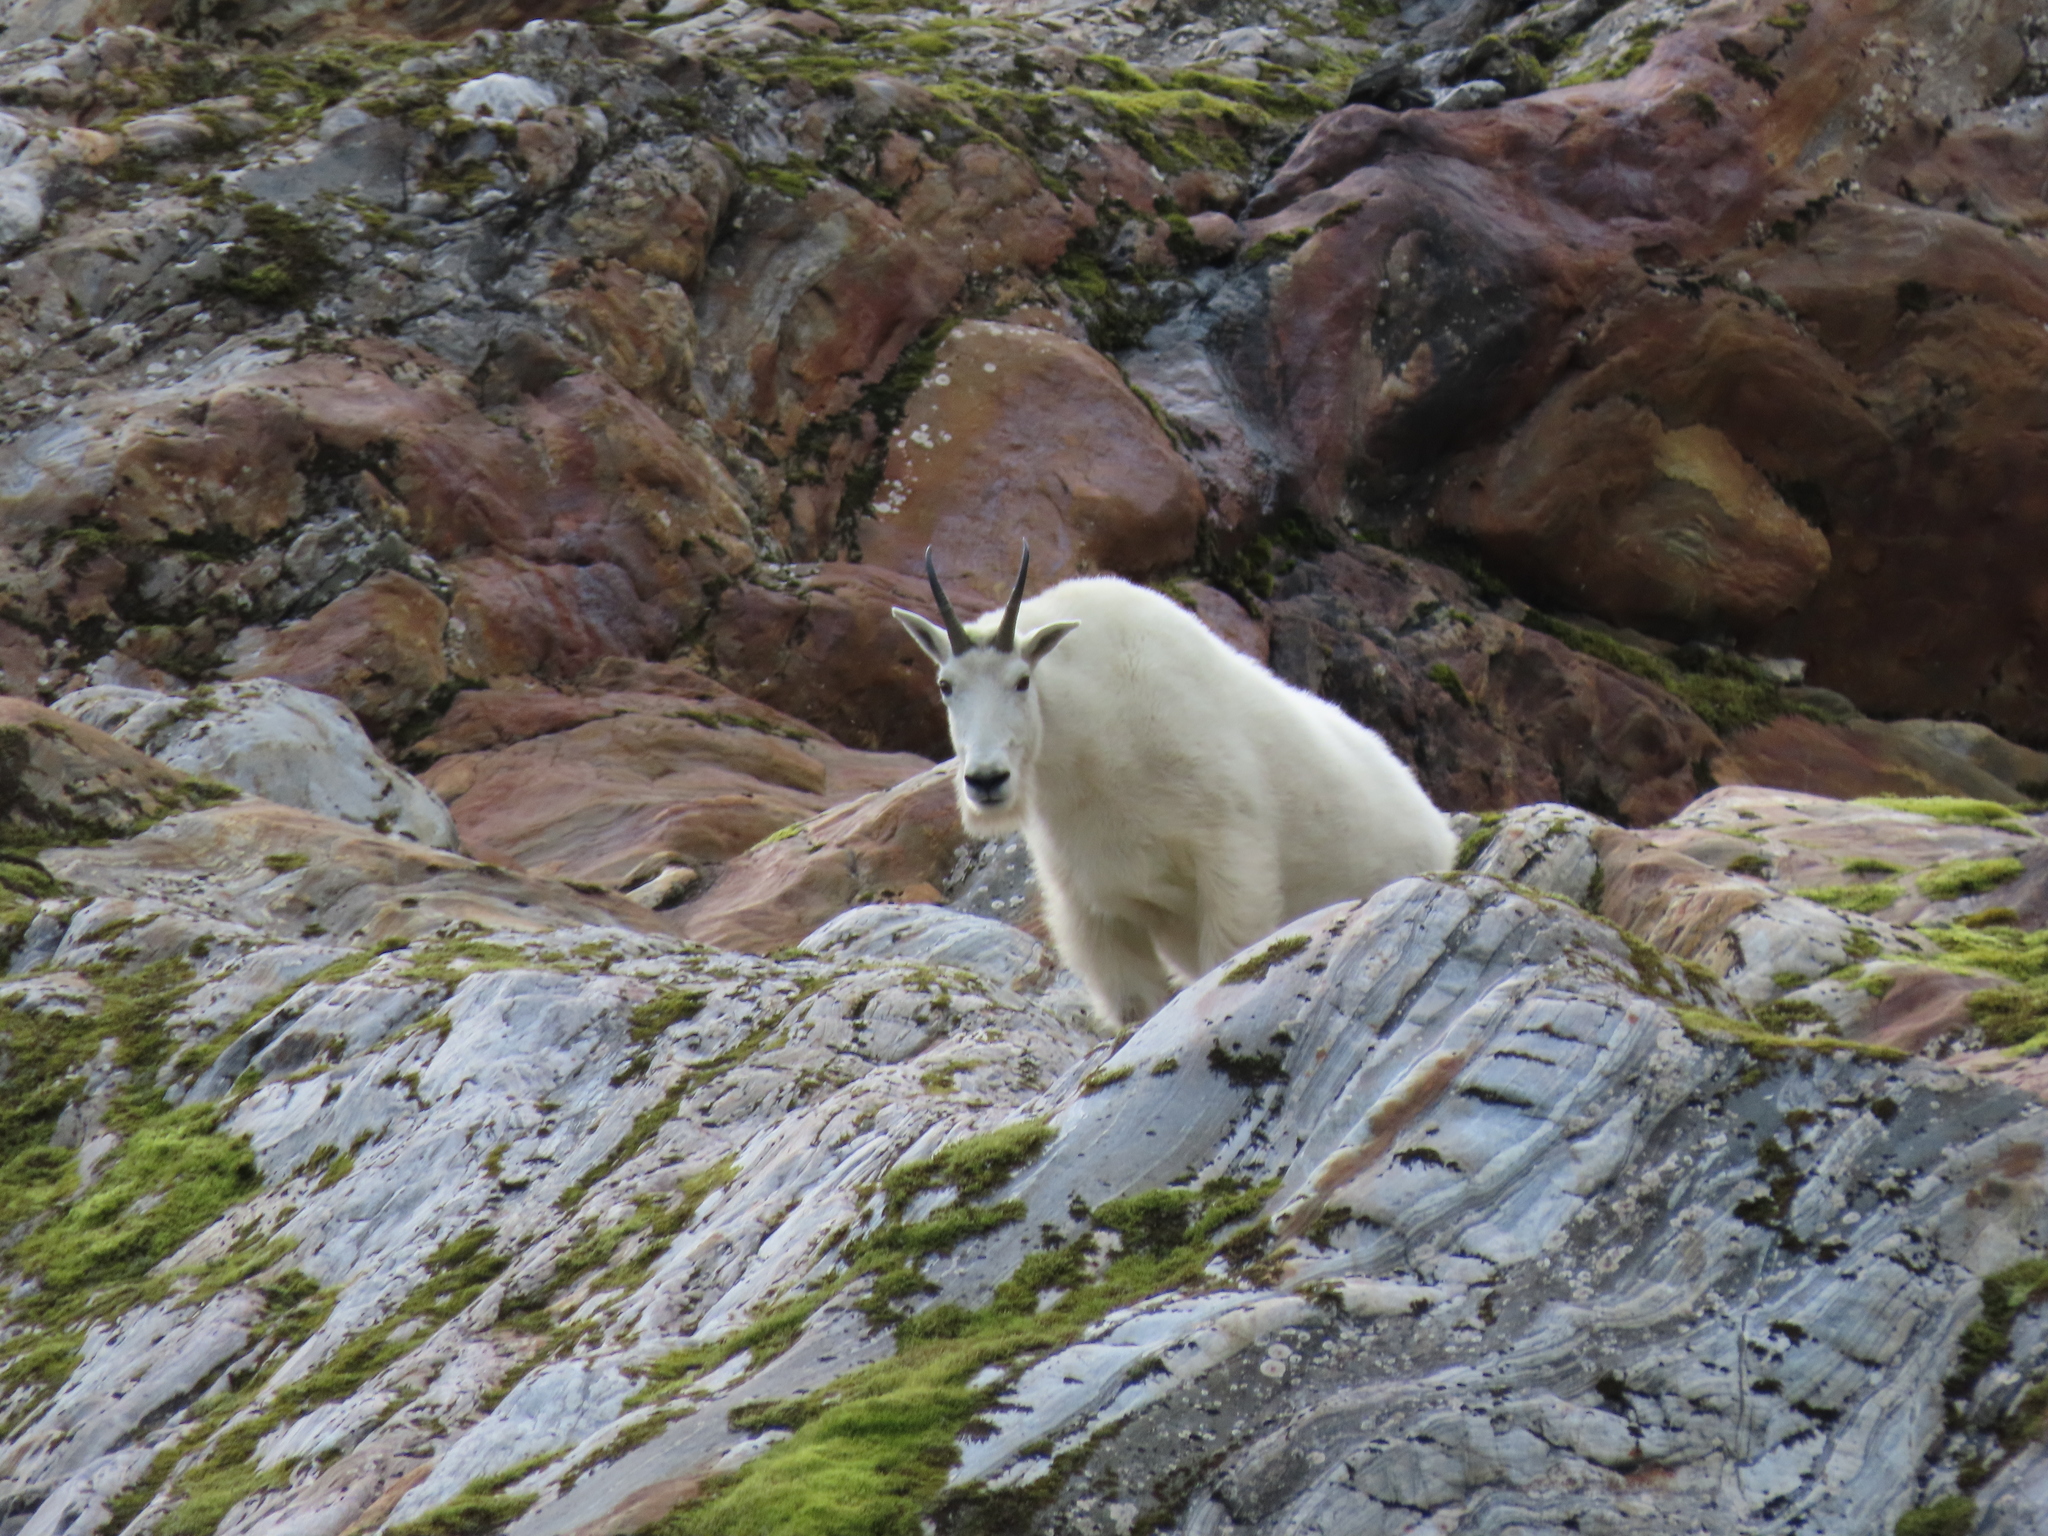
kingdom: Animalia
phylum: Chordata
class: Mammalia
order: Artiodactyla
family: Bovidae
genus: Oreamnos
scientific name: Oreamnos americanus
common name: Mountain goat
